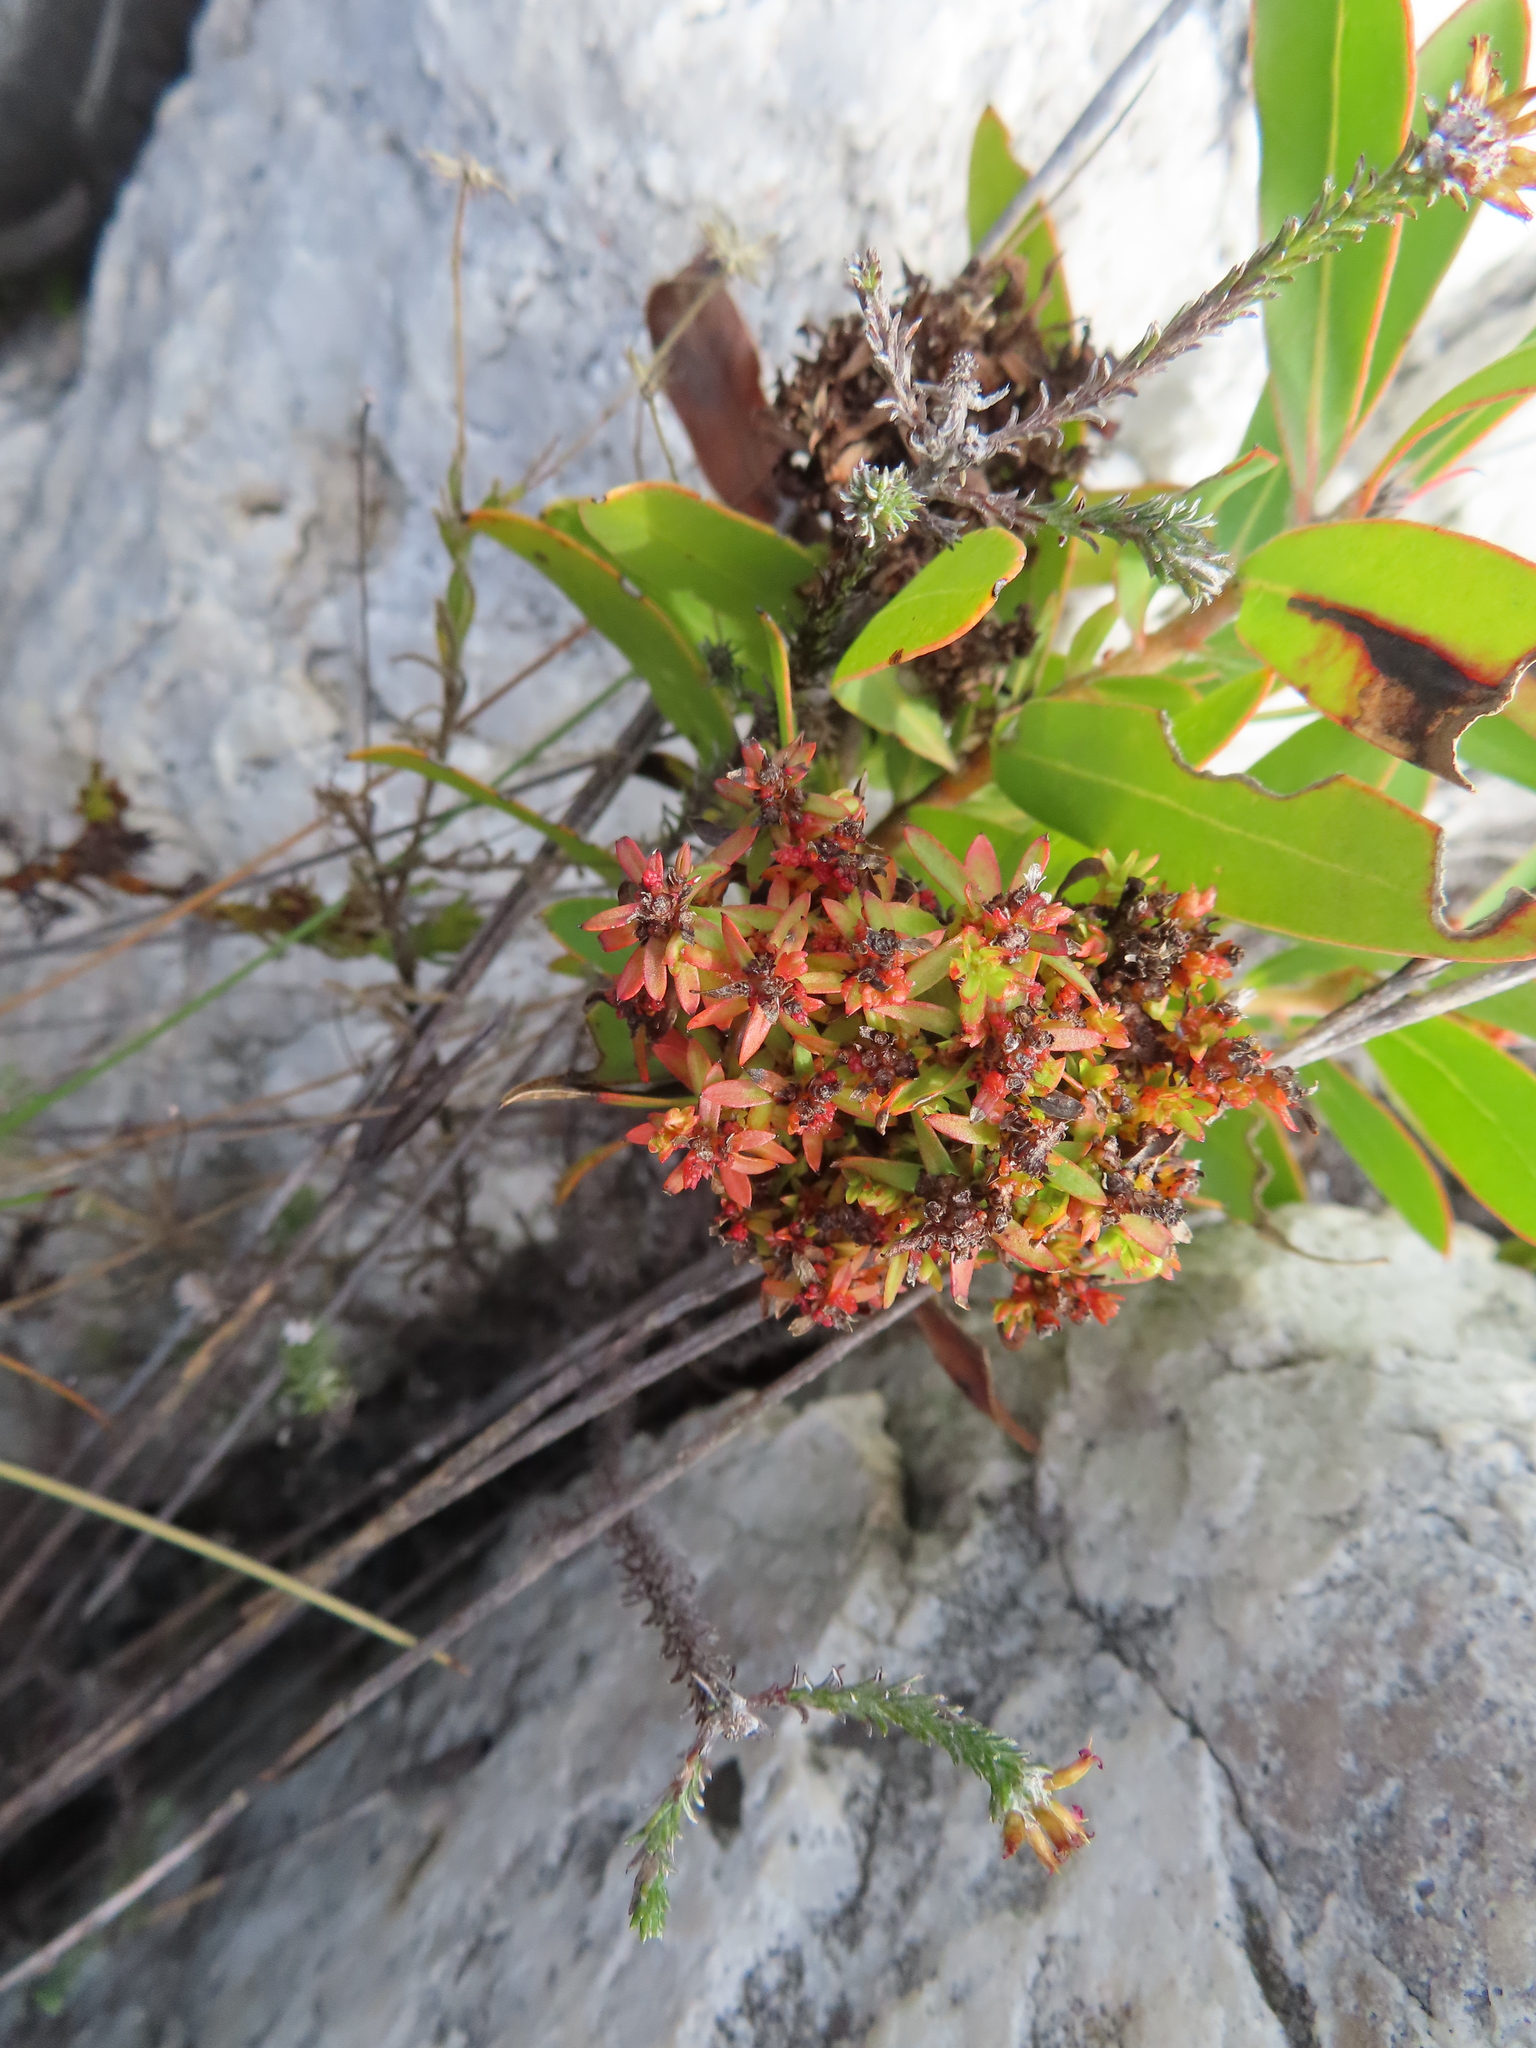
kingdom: Bacteria
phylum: Firmicutes
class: Bacilli
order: Acholeplasmatales
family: Acholeplasmataceae
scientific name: Acholeplasmataceae
